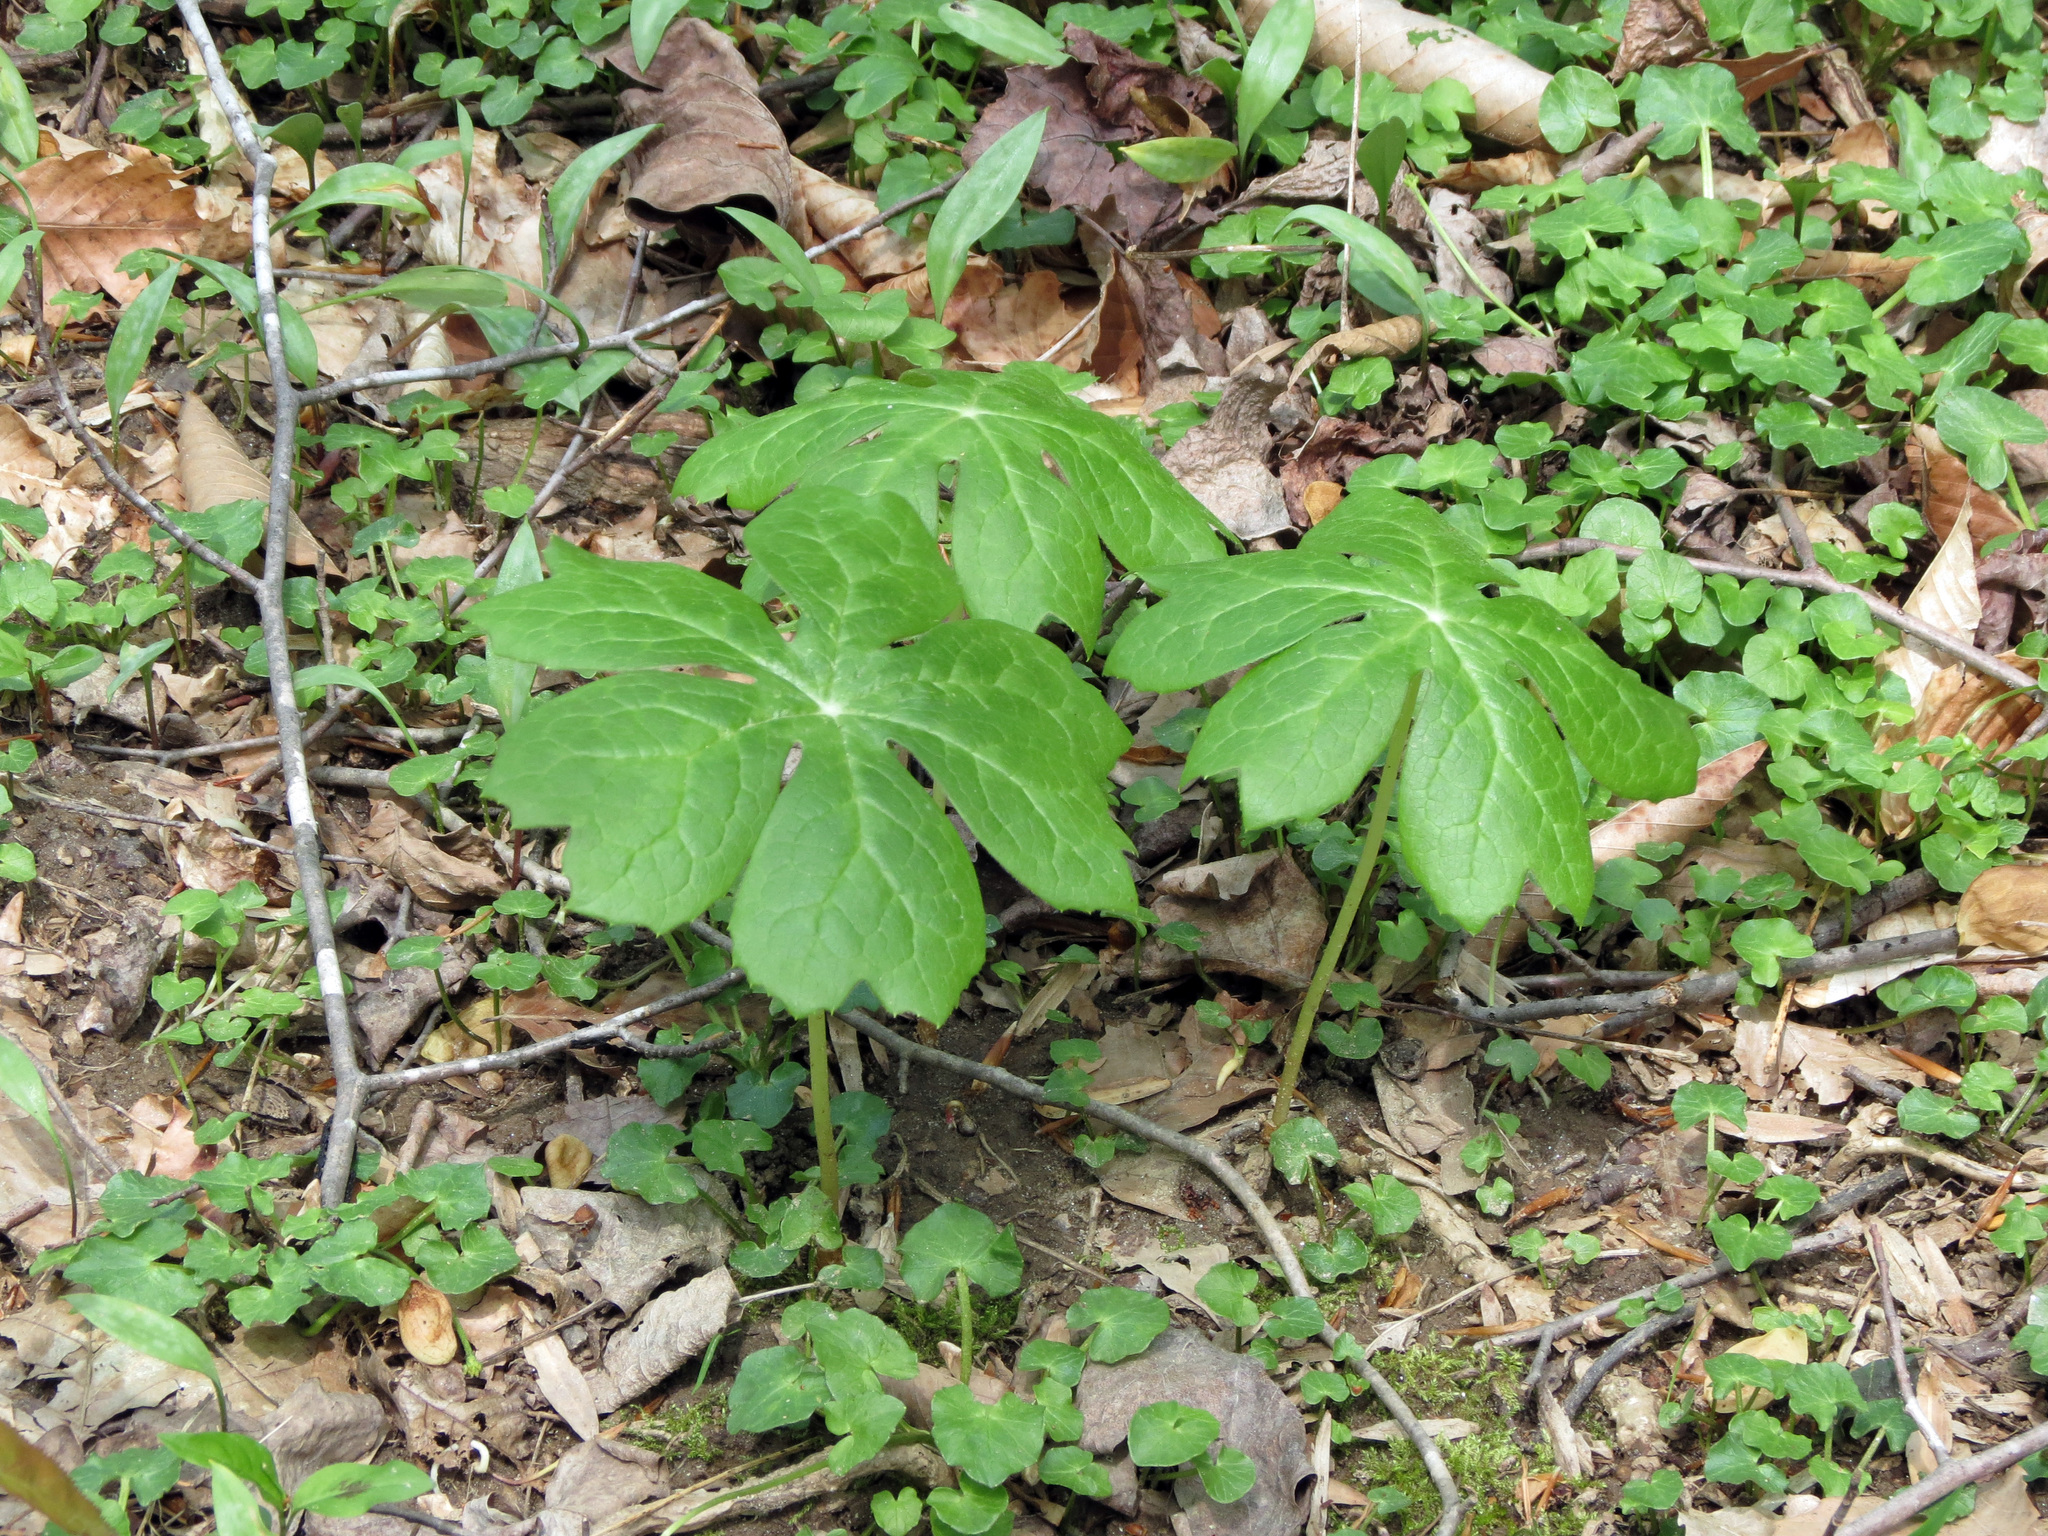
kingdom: Plantae
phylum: Tracheophyta
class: Magnoliopsida
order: Ranunculales
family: Berberidaceae
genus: Podophyllum
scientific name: Podophyllum peltatum
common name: Wild mandrake
